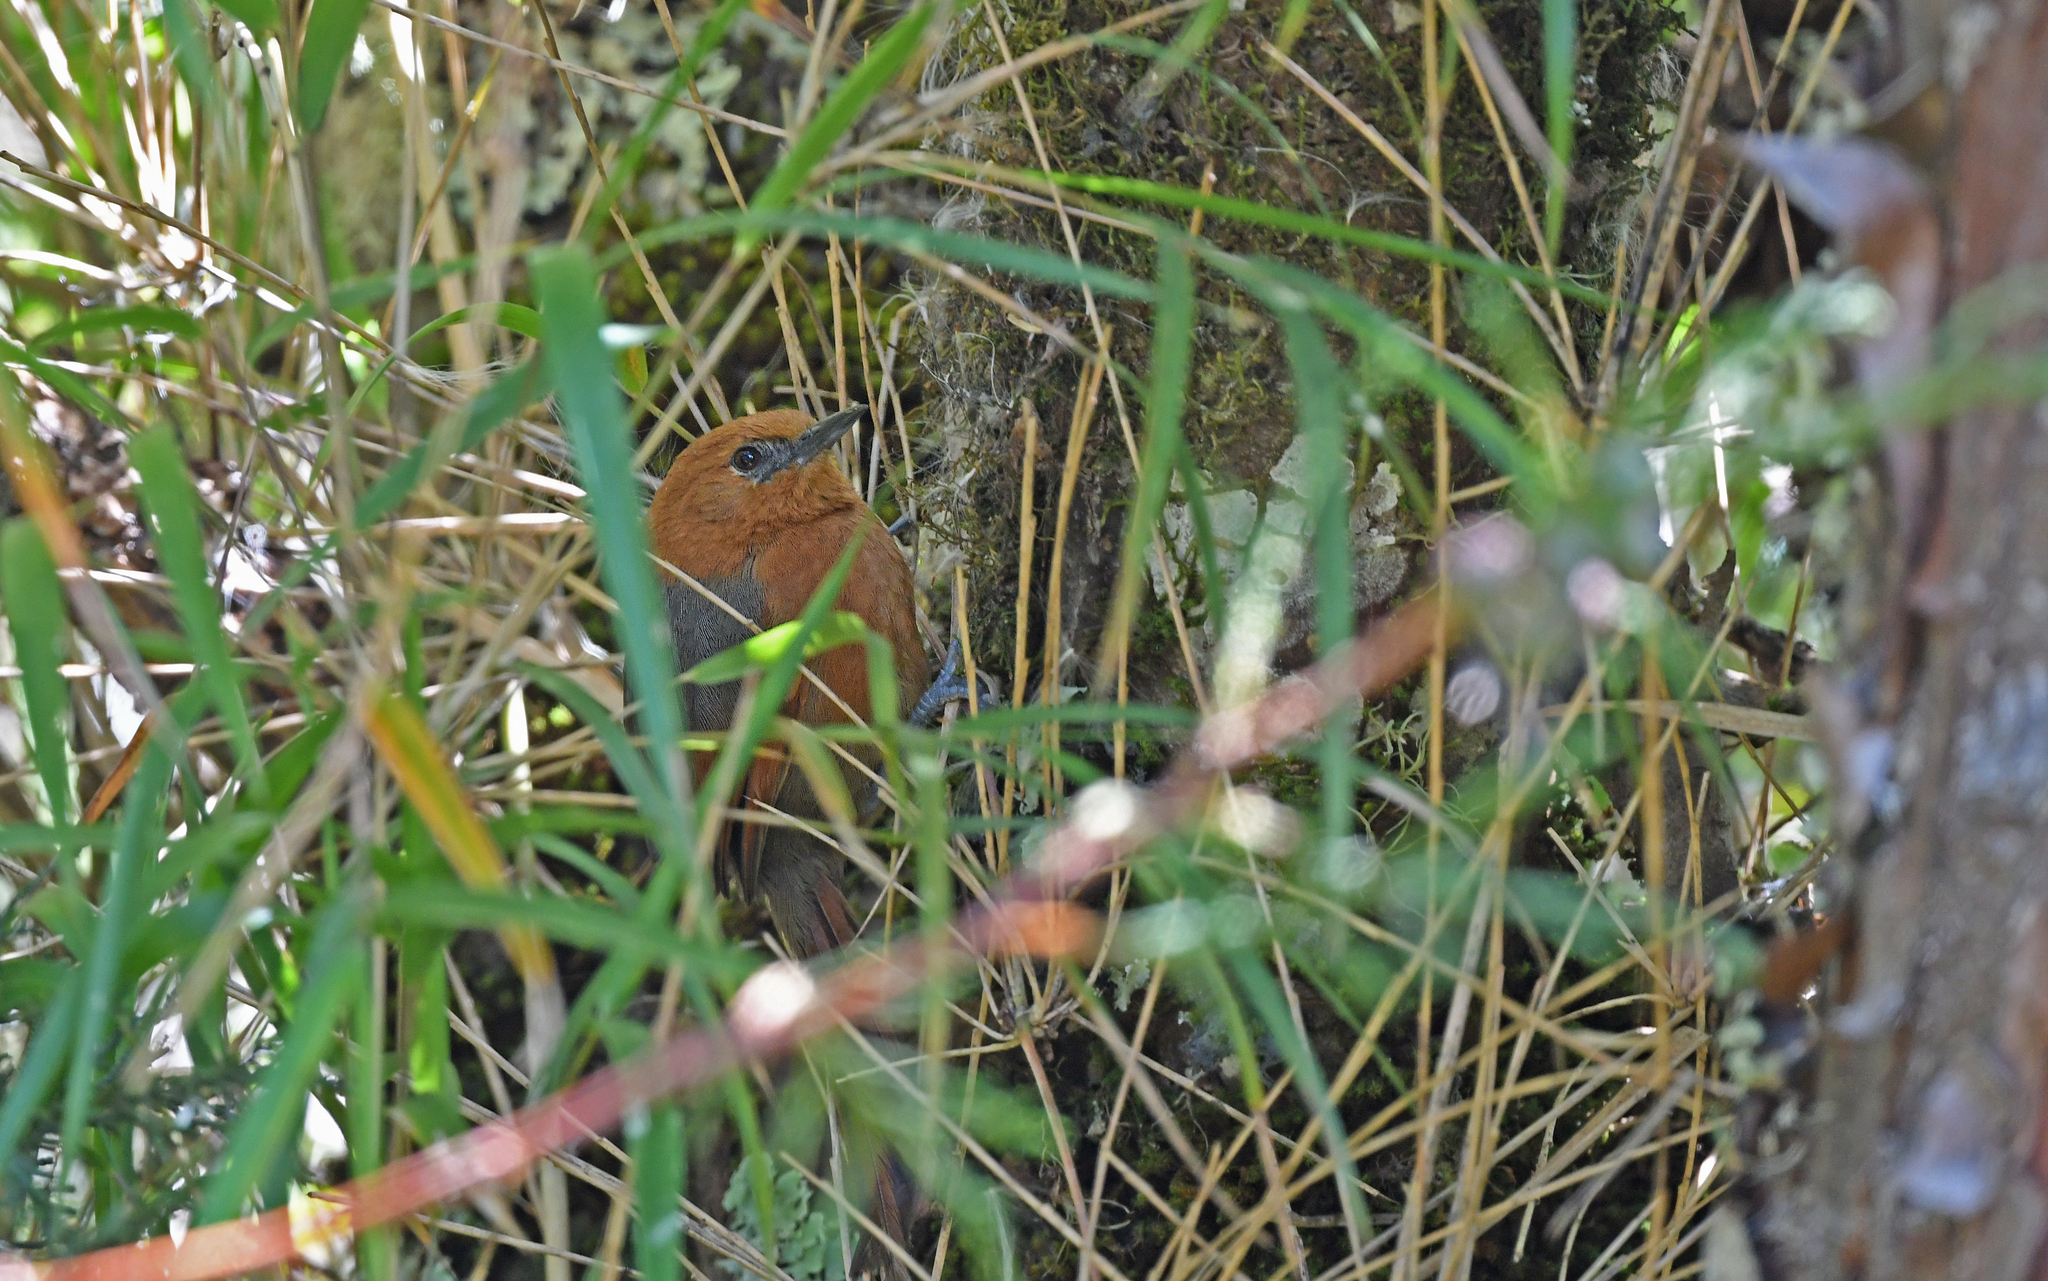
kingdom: Animalia
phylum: Chordata
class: Aves
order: Passeriformes
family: Furnariidae
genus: Synallaxis
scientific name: Synallaxis fuscorufa
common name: Rusty-headed spinetail
